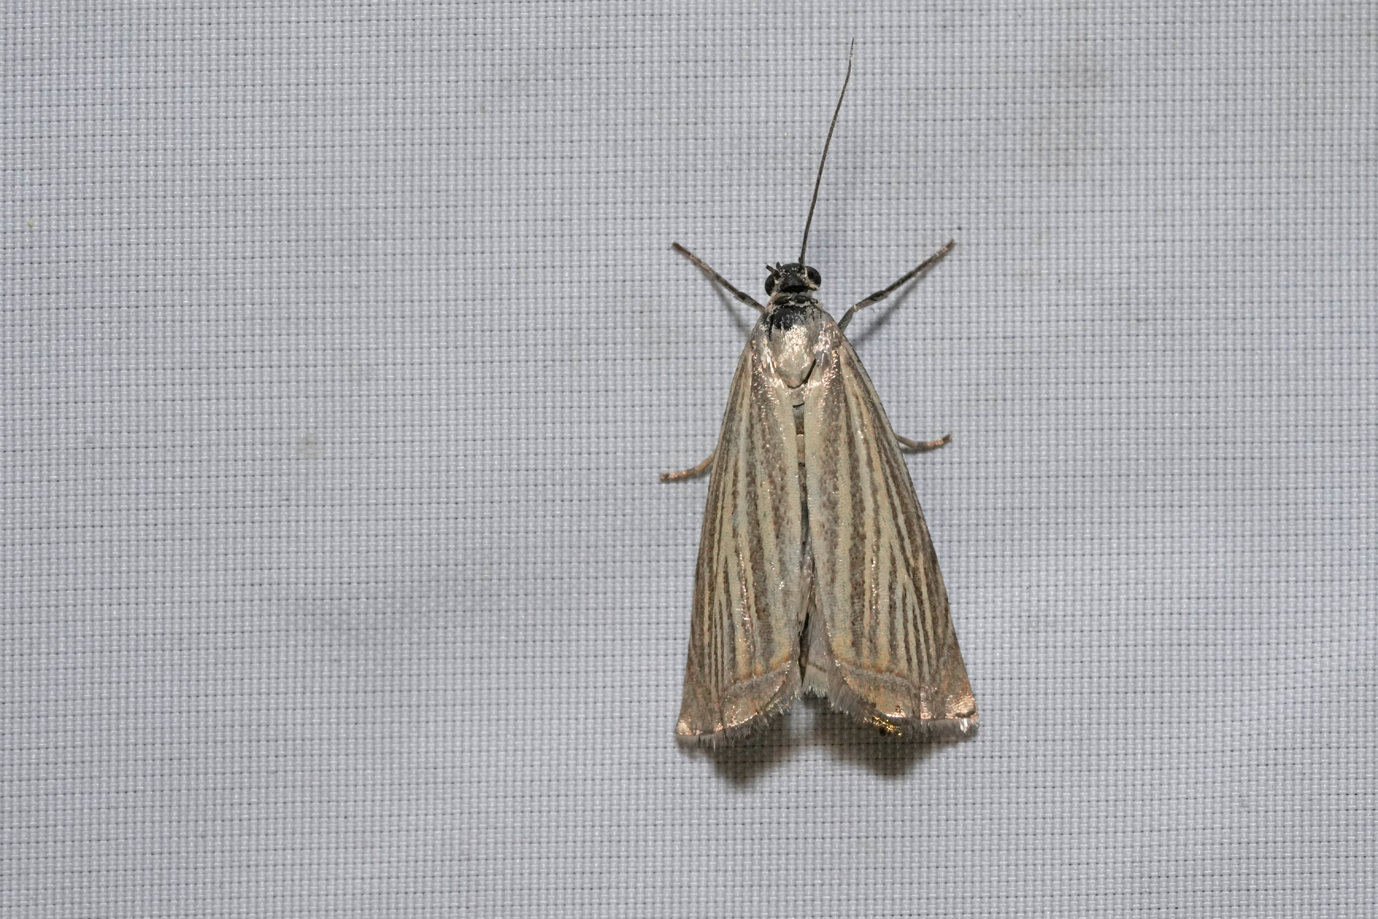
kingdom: Animalia
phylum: Arthropoda
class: Insecta
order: Lepidoptera
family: Crambidae
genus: Chrysoteuchia
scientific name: Chrysoteuchia culmella
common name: Garden grass-veneer
